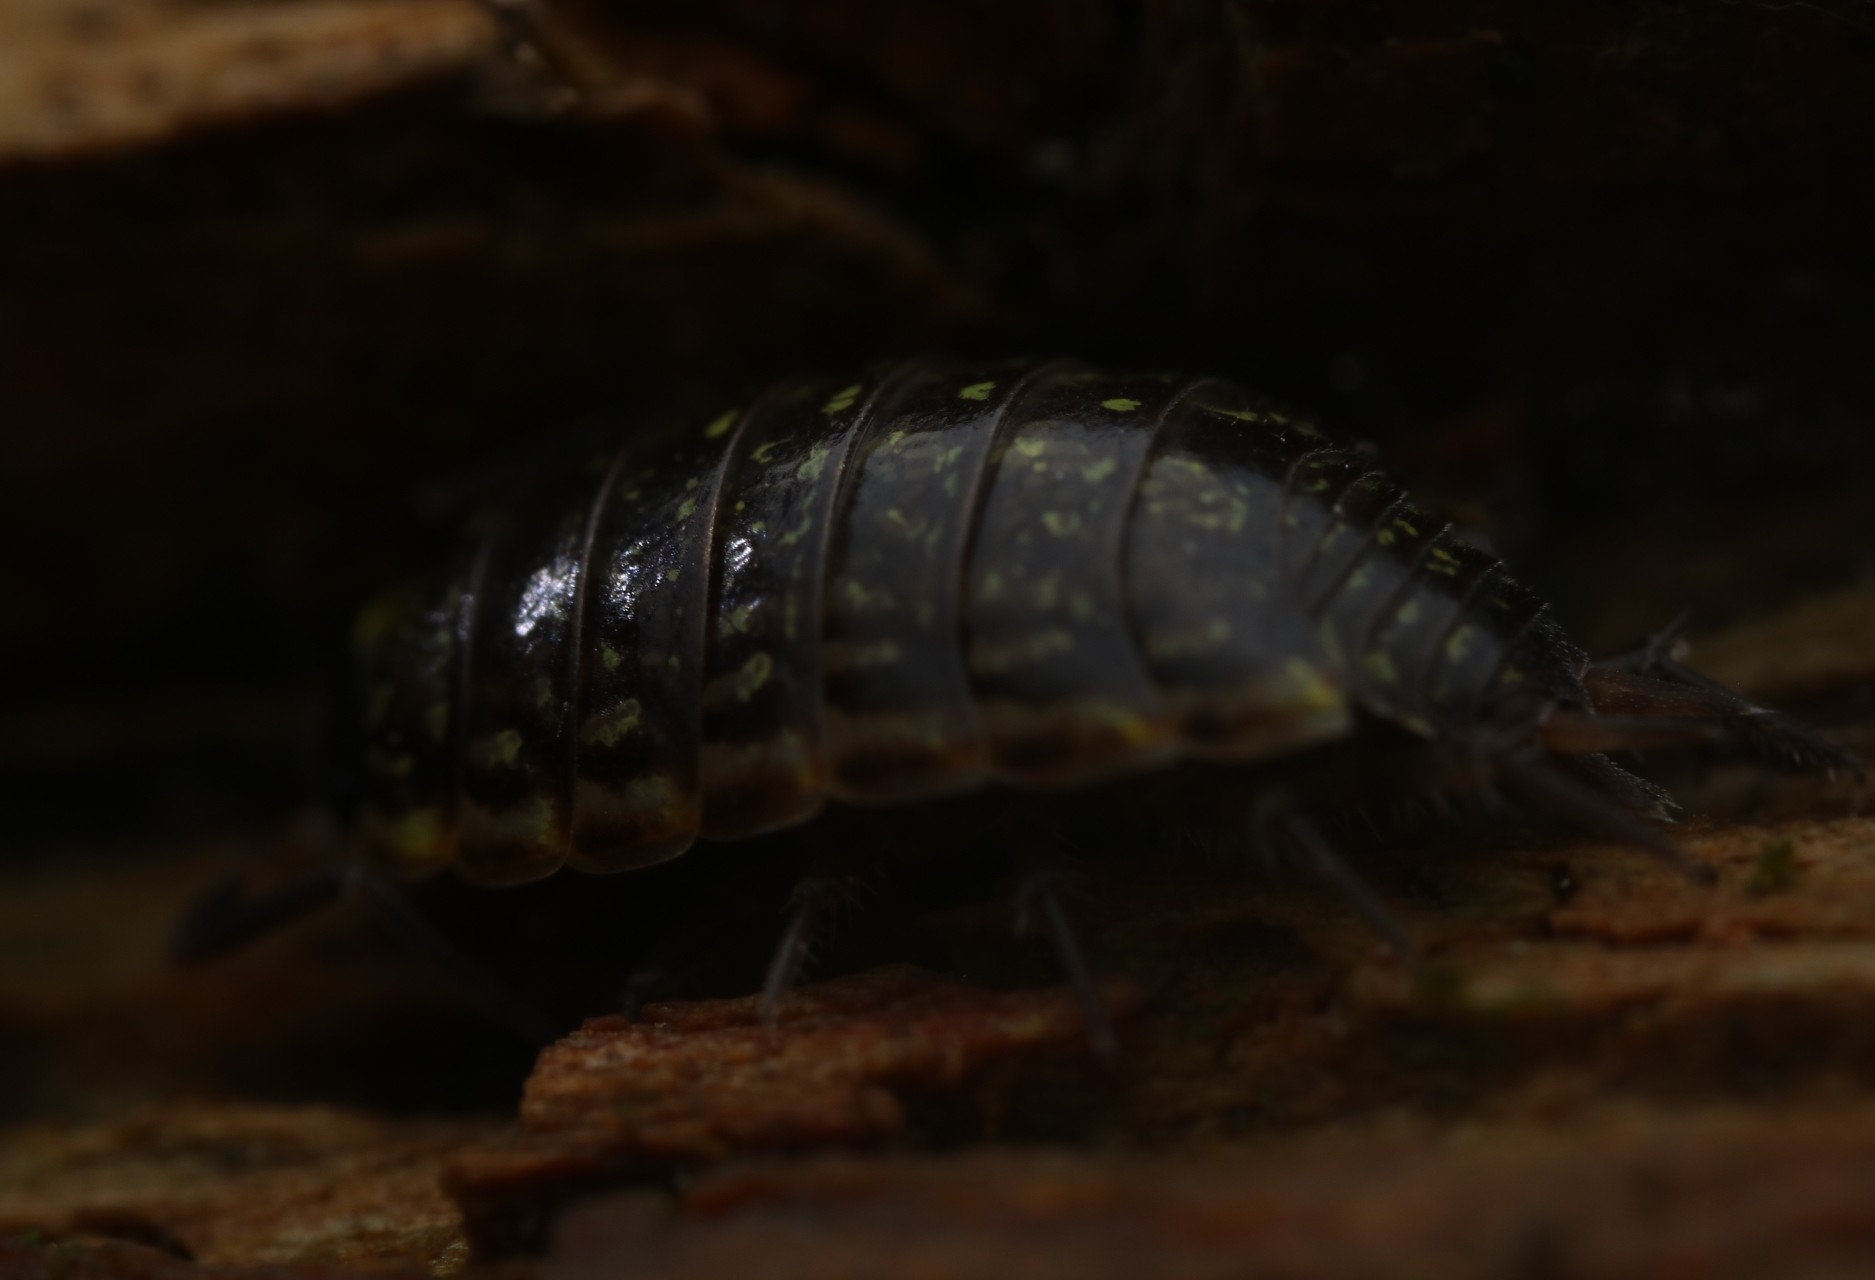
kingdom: Animalia
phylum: Arthropoda
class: Malacostraca
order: Isopoda
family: Philosciidae
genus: Philoscia
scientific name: Philoscia muscorum
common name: Common striped woodlouse
